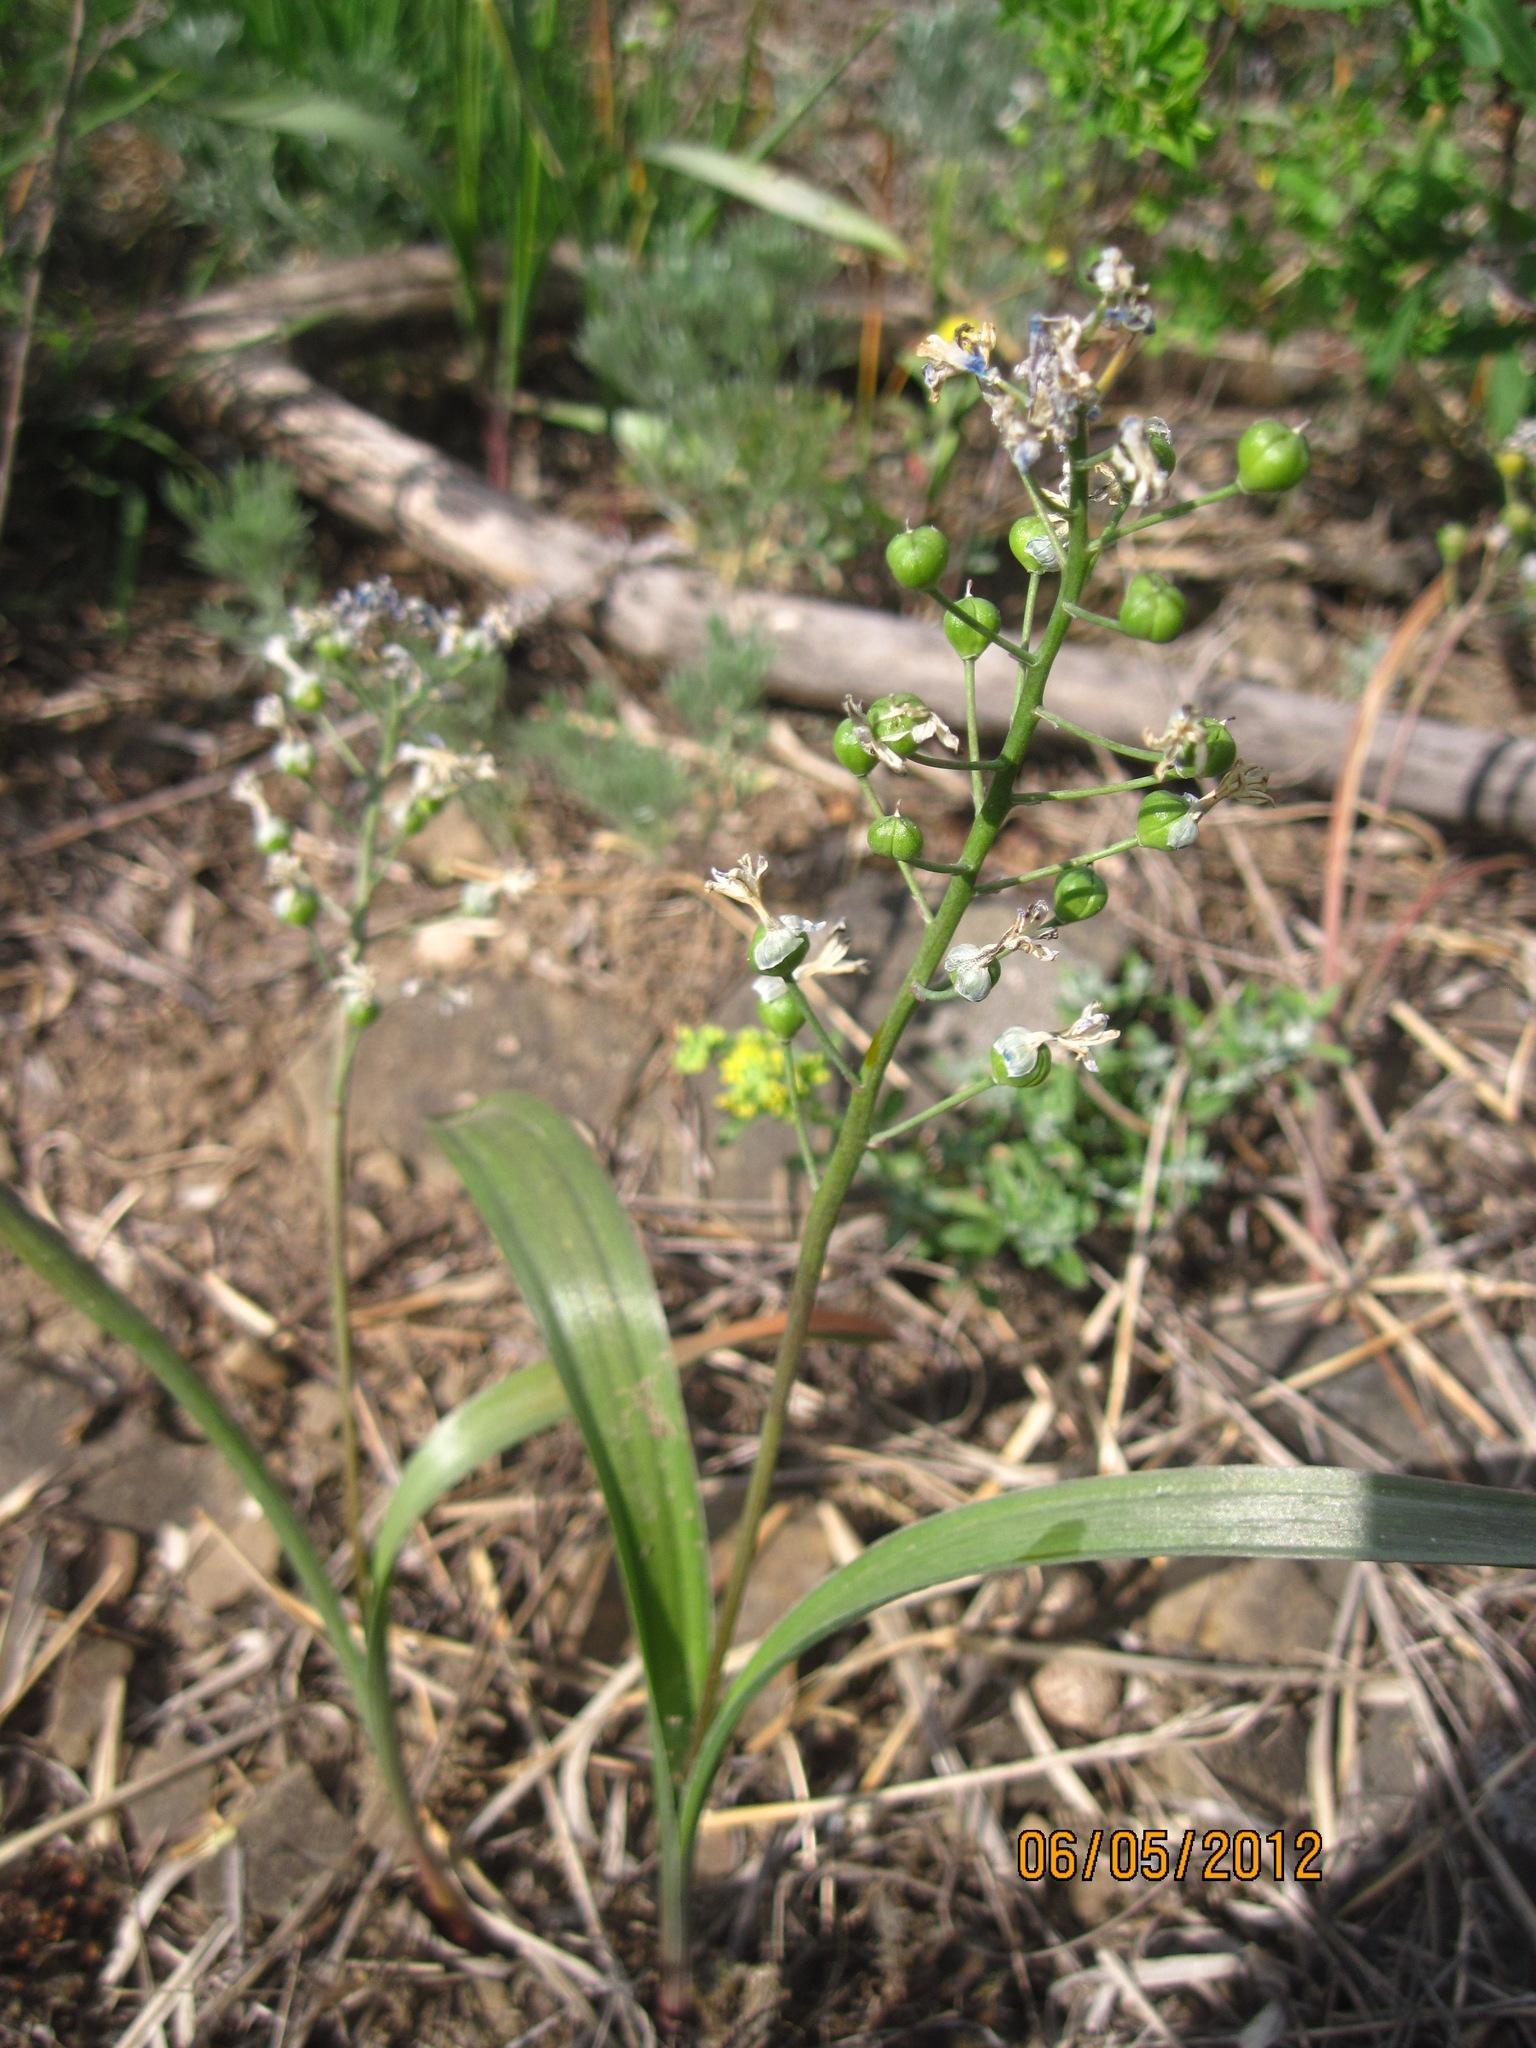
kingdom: Plantae
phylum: Tracheophyta
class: Liliopsida
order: Asparagales
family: Asparagaceae
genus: Hyacinthella
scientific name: Hyacinthella pallasiana
